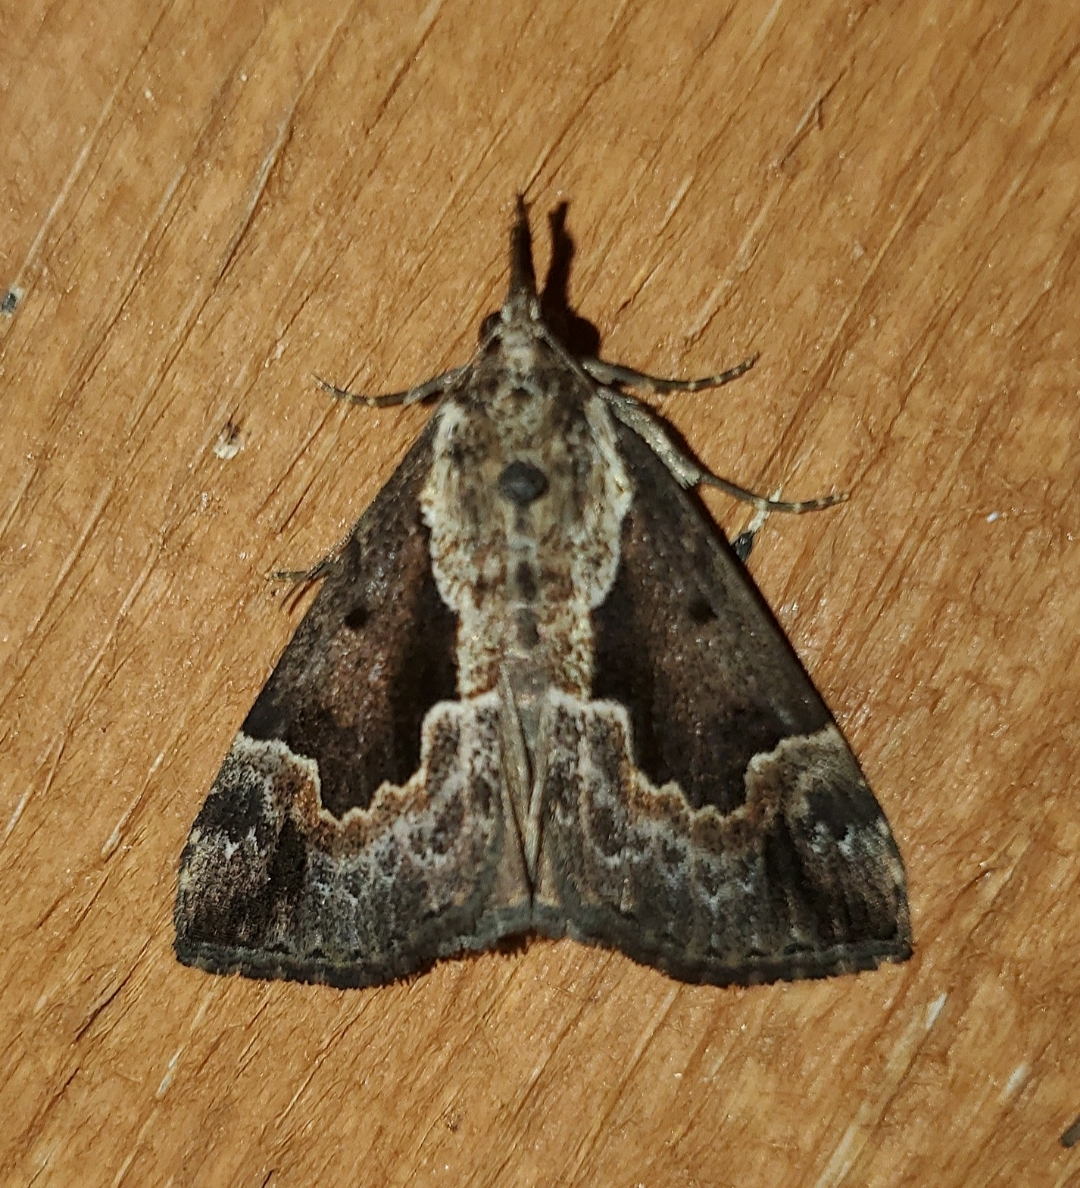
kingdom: Animalia
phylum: Arthropoda
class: Insecta
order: Lepidoptera
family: Erebidae
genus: Hypena
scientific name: Hypena baltimoralis
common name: Baltimore snout
